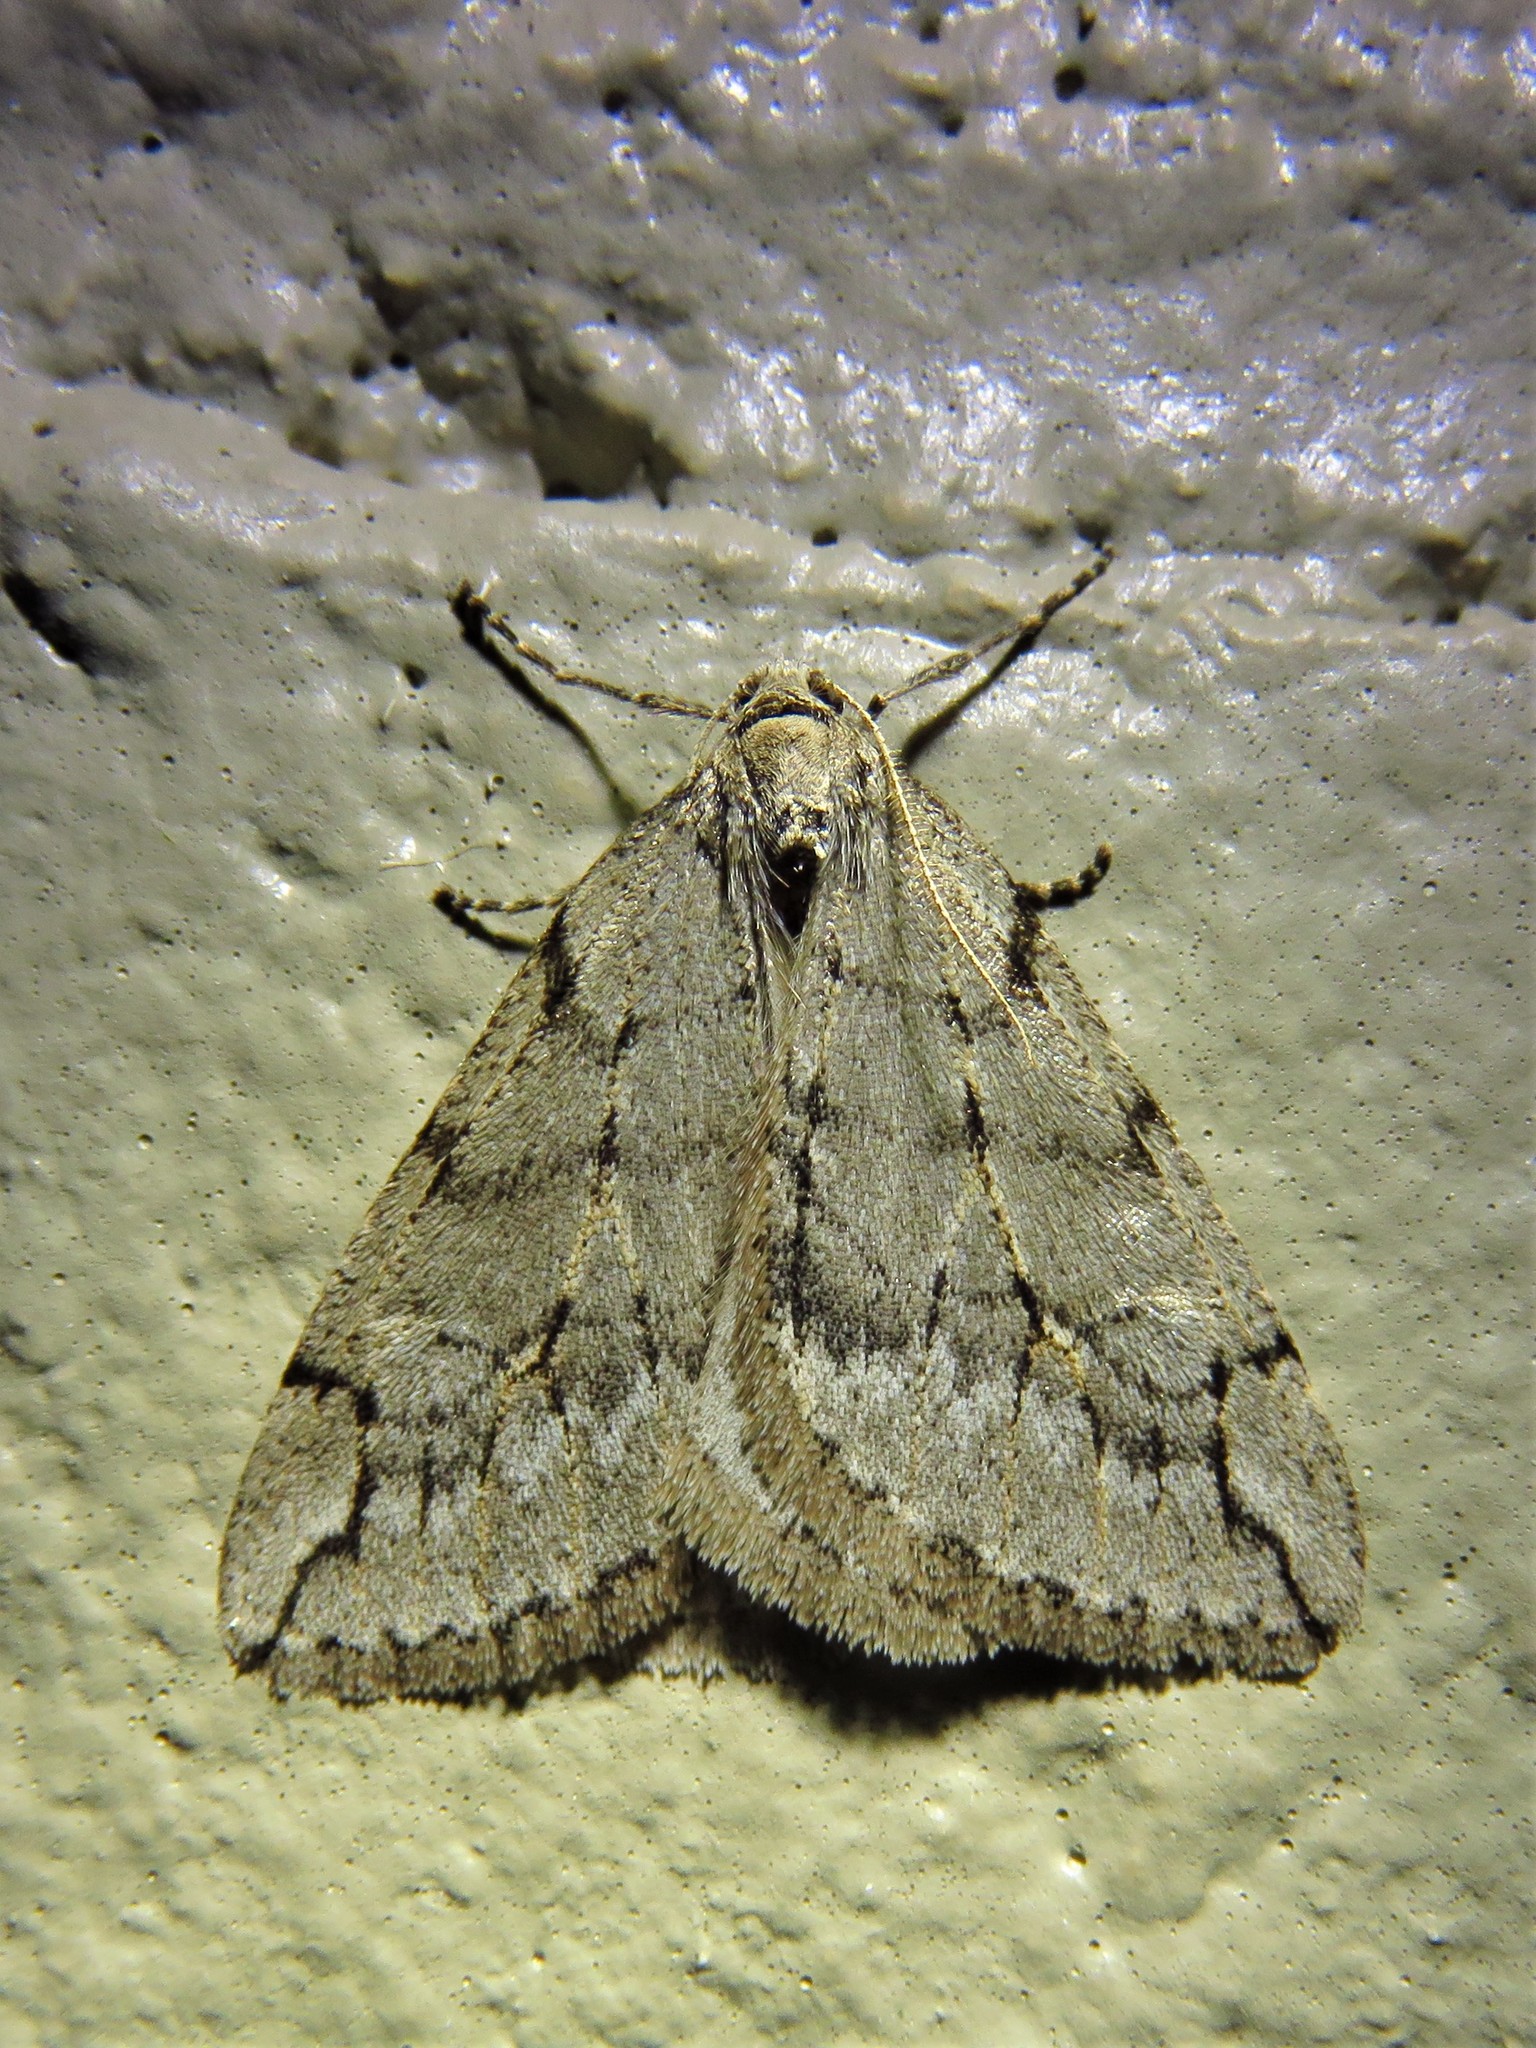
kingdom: Animalia
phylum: Arthropoda
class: Insecta
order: Lepidoptera
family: Geometridae
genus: Paleacrita
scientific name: Paleacrita vernata
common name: Spring cankerworm
